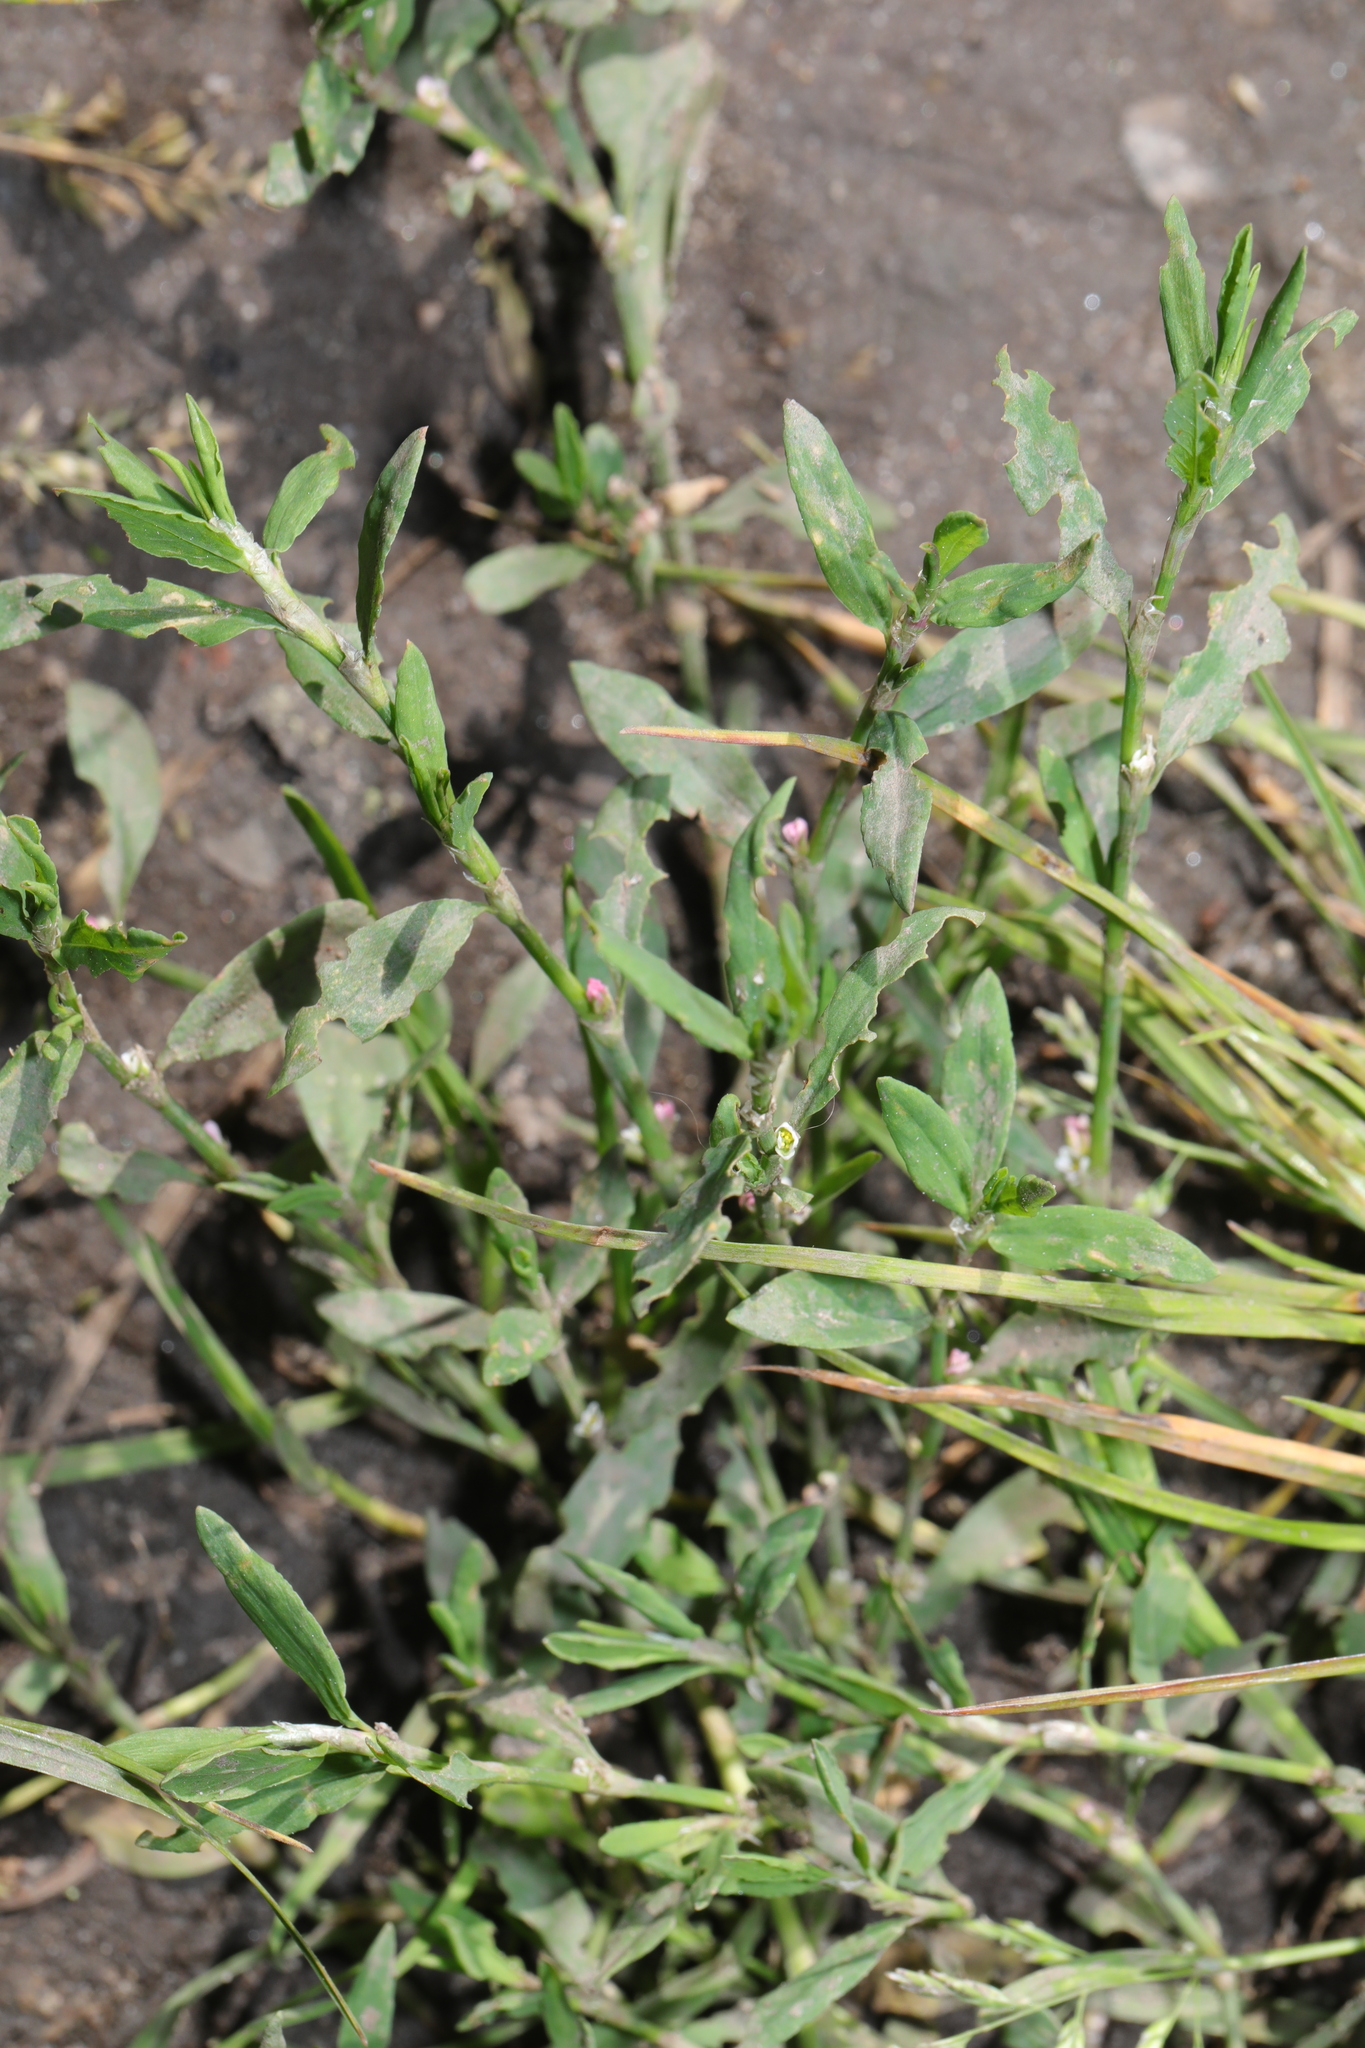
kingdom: Plantae
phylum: Tracheophyta
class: Magnoliopsida
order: Caryophyllales
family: Polygonaceae
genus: Polygonum
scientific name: Polygonum aviculare
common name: Prostrate knotweed
